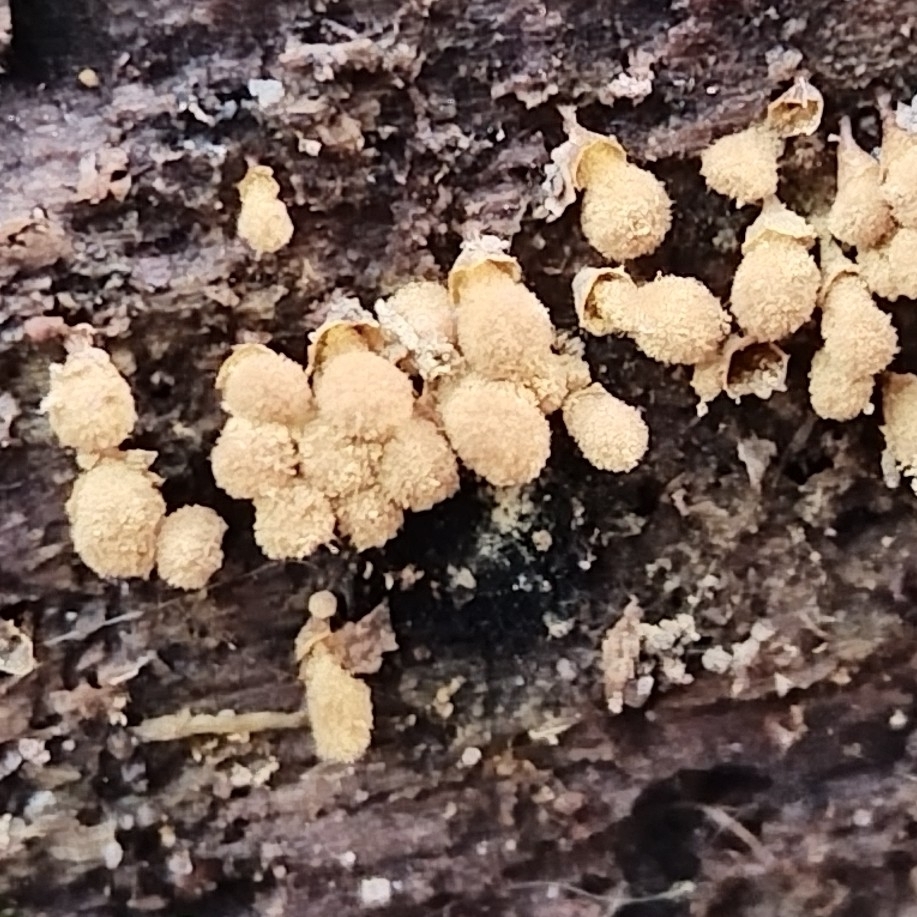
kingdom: Protozoa
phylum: Mycetozoa
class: Myxomycetes
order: Trichiales
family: Arcyriaceae
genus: Hemitrichia
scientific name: Hemitrichia calyculata
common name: Push pin slime mold
